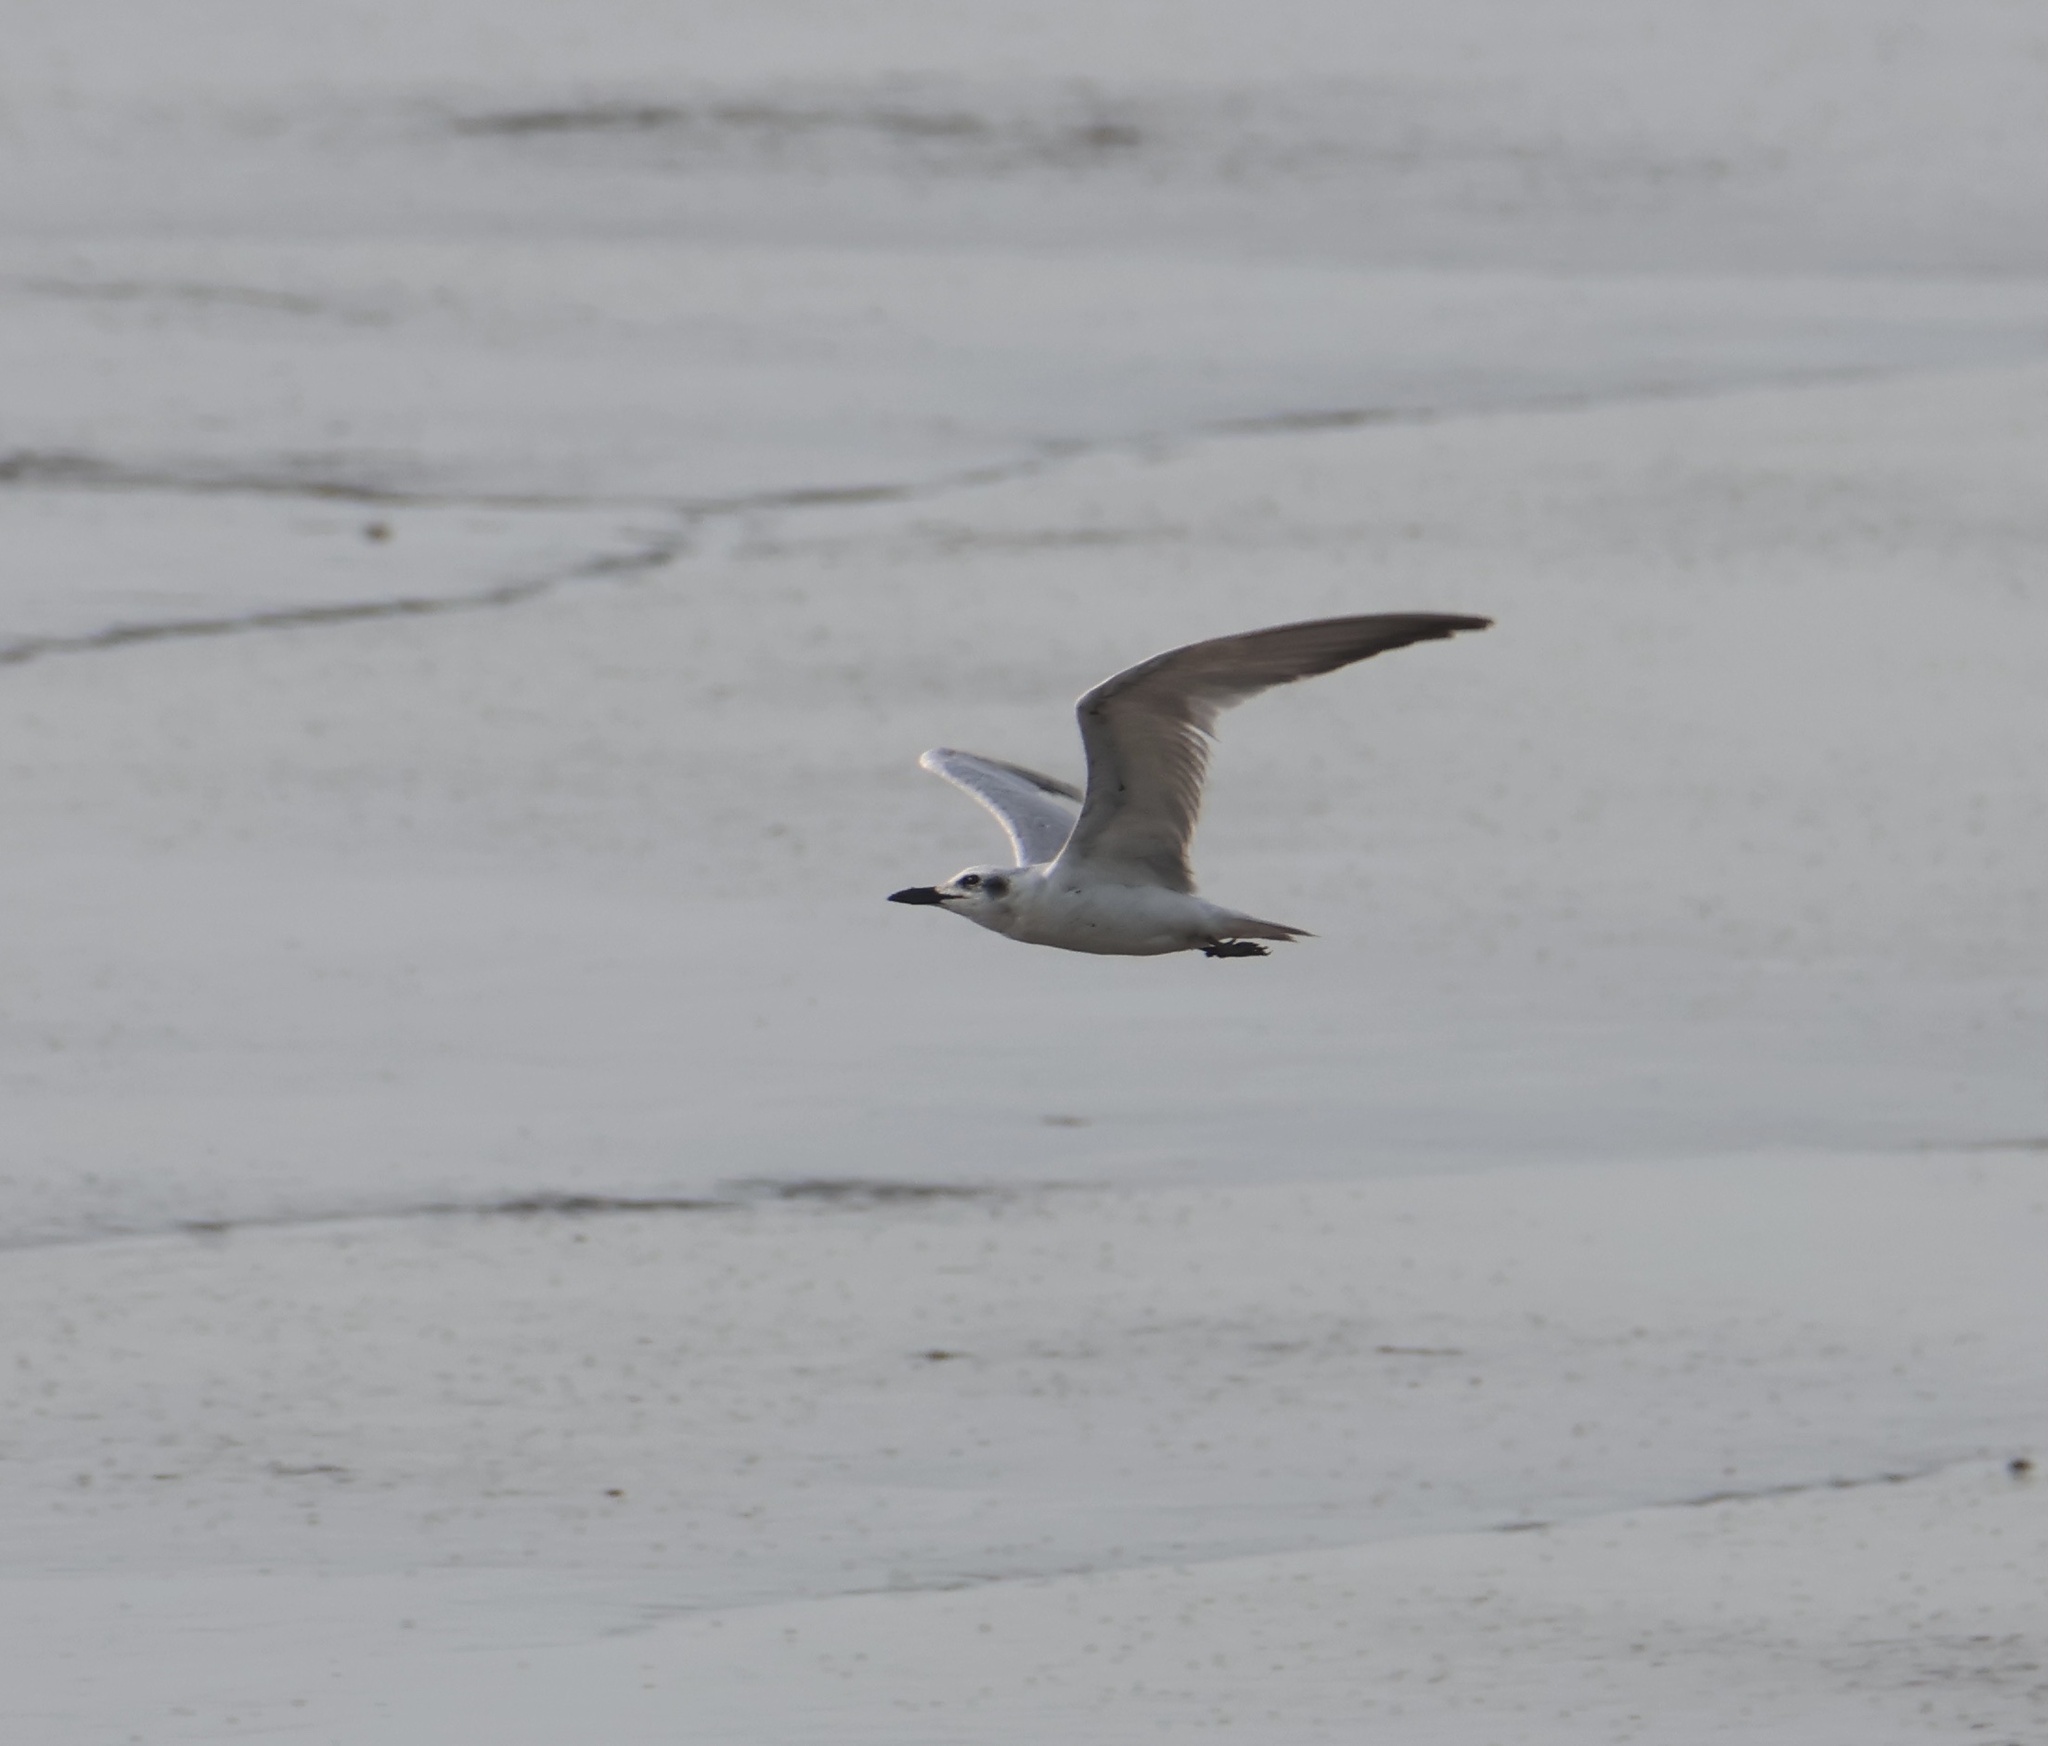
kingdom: Animalia
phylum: Chordata
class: Aves
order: Charadriiformes
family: Laridae
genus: Gelochelidon
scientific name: Gelochelidon nilotica
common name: Gull-billed tern
